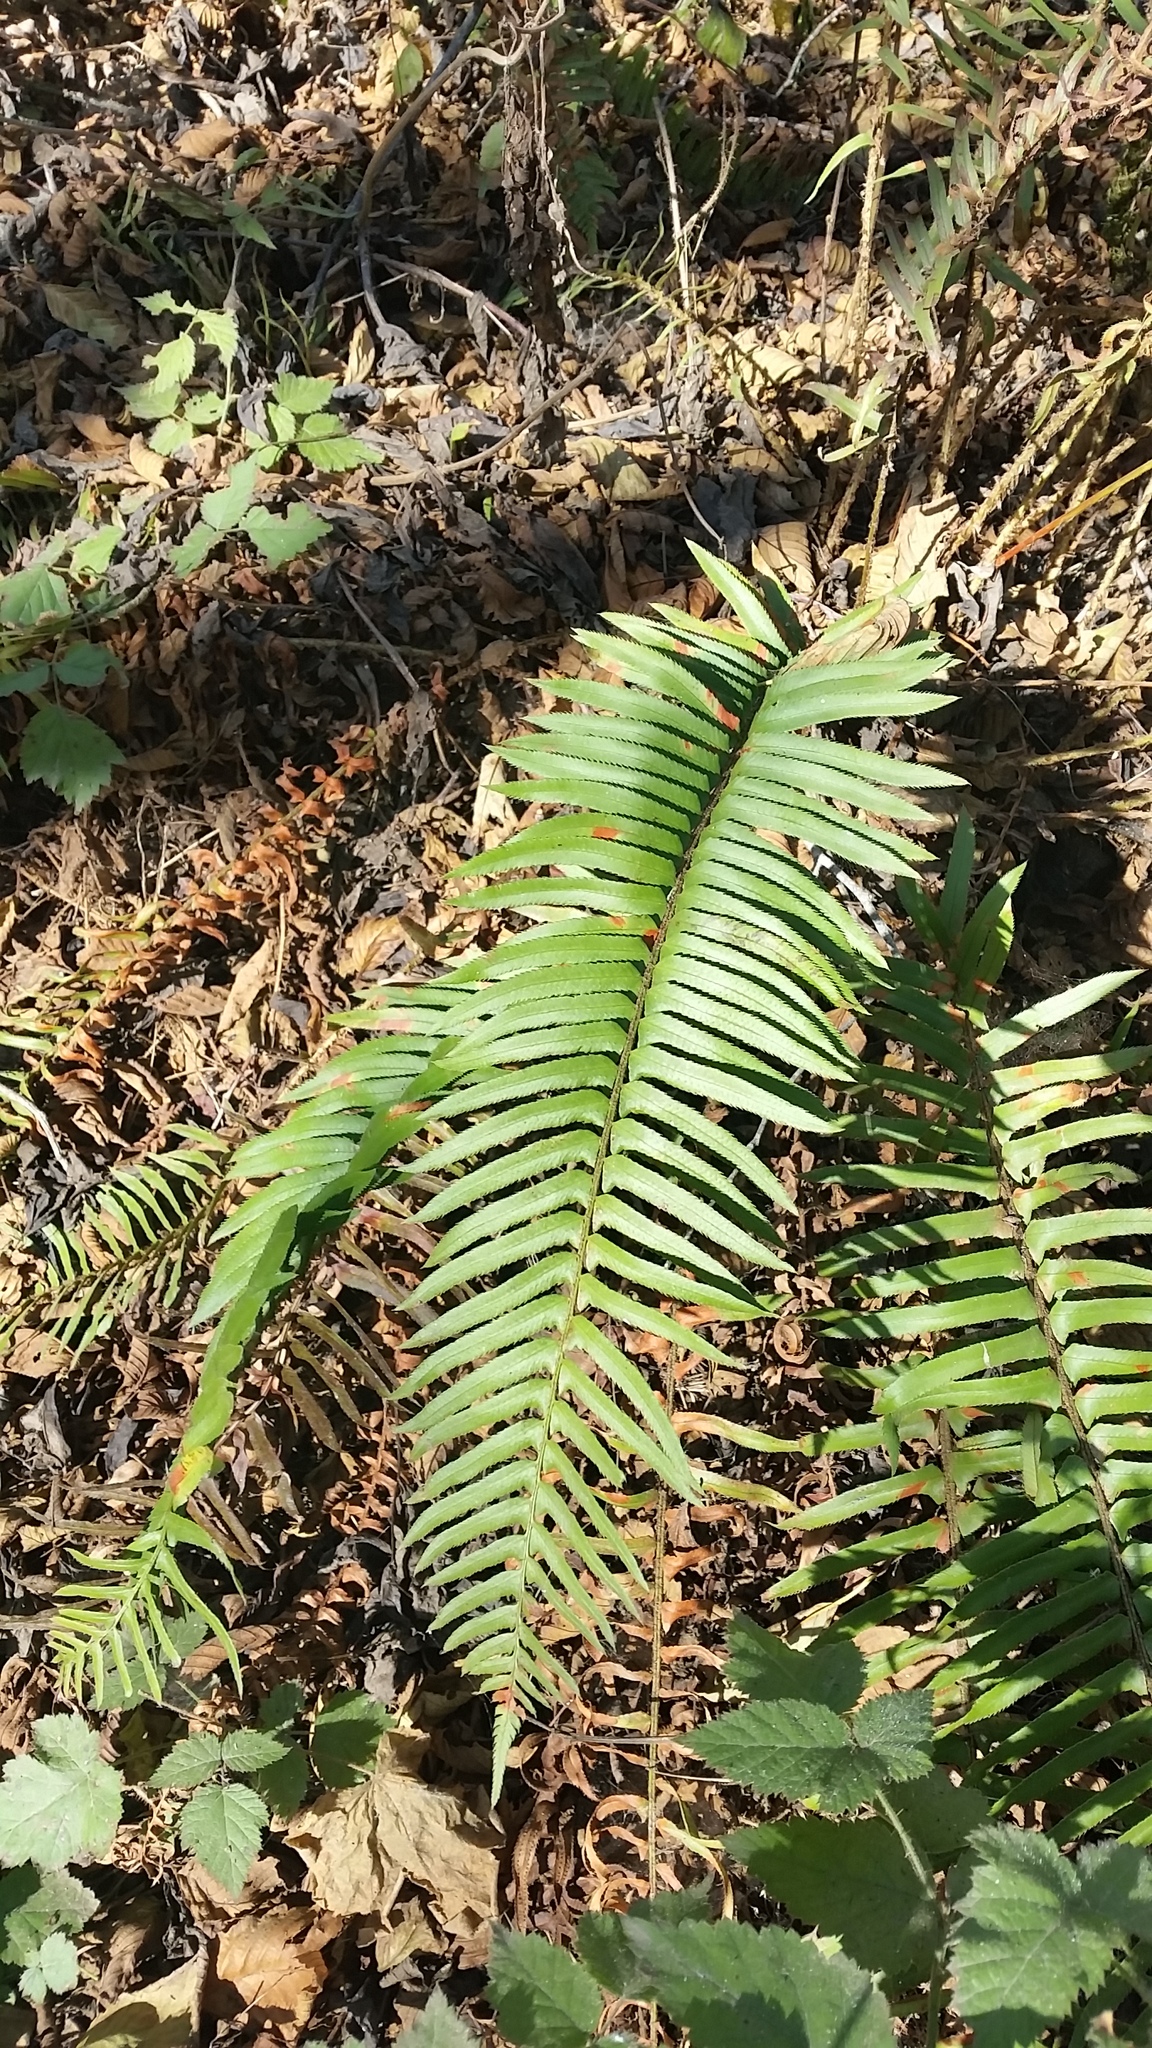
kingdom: Plantae
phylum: Tracheophyta
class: Polypodiopsida
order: Polypodiales
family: Dryopteridaceae
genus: Polystichum
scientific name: Polystichum munitum
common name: Western sword-fern
